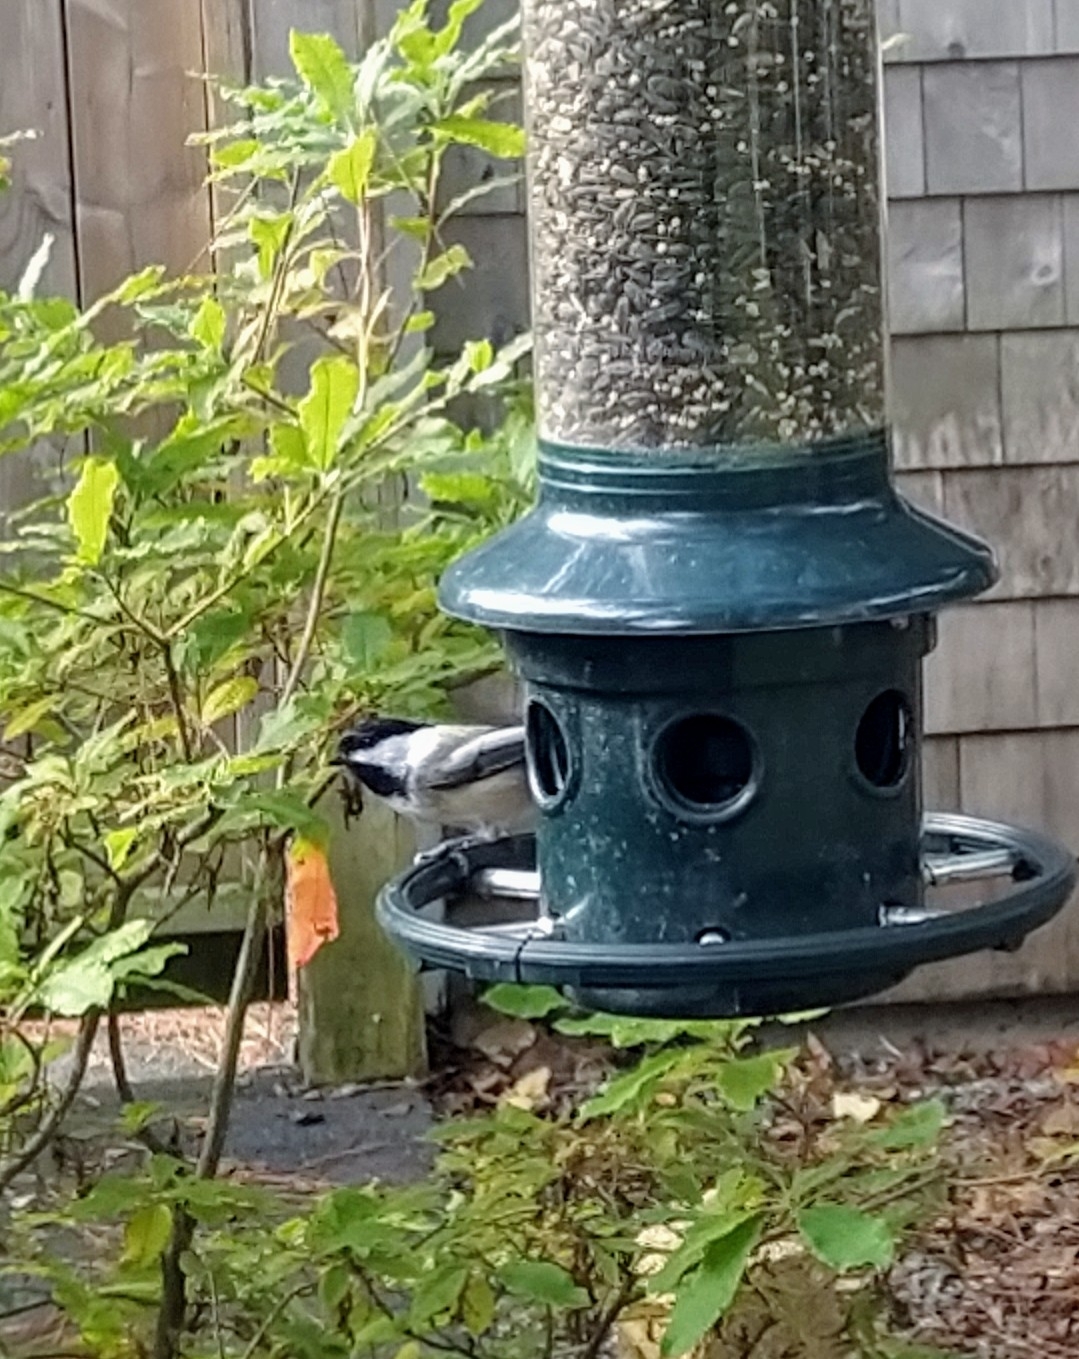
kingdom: Animalia
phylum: Chordata
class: Aves
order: Passeriformes
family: Paridae
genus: Poecile
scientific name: Poecile atricapillus
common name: Black-capped chickadee
